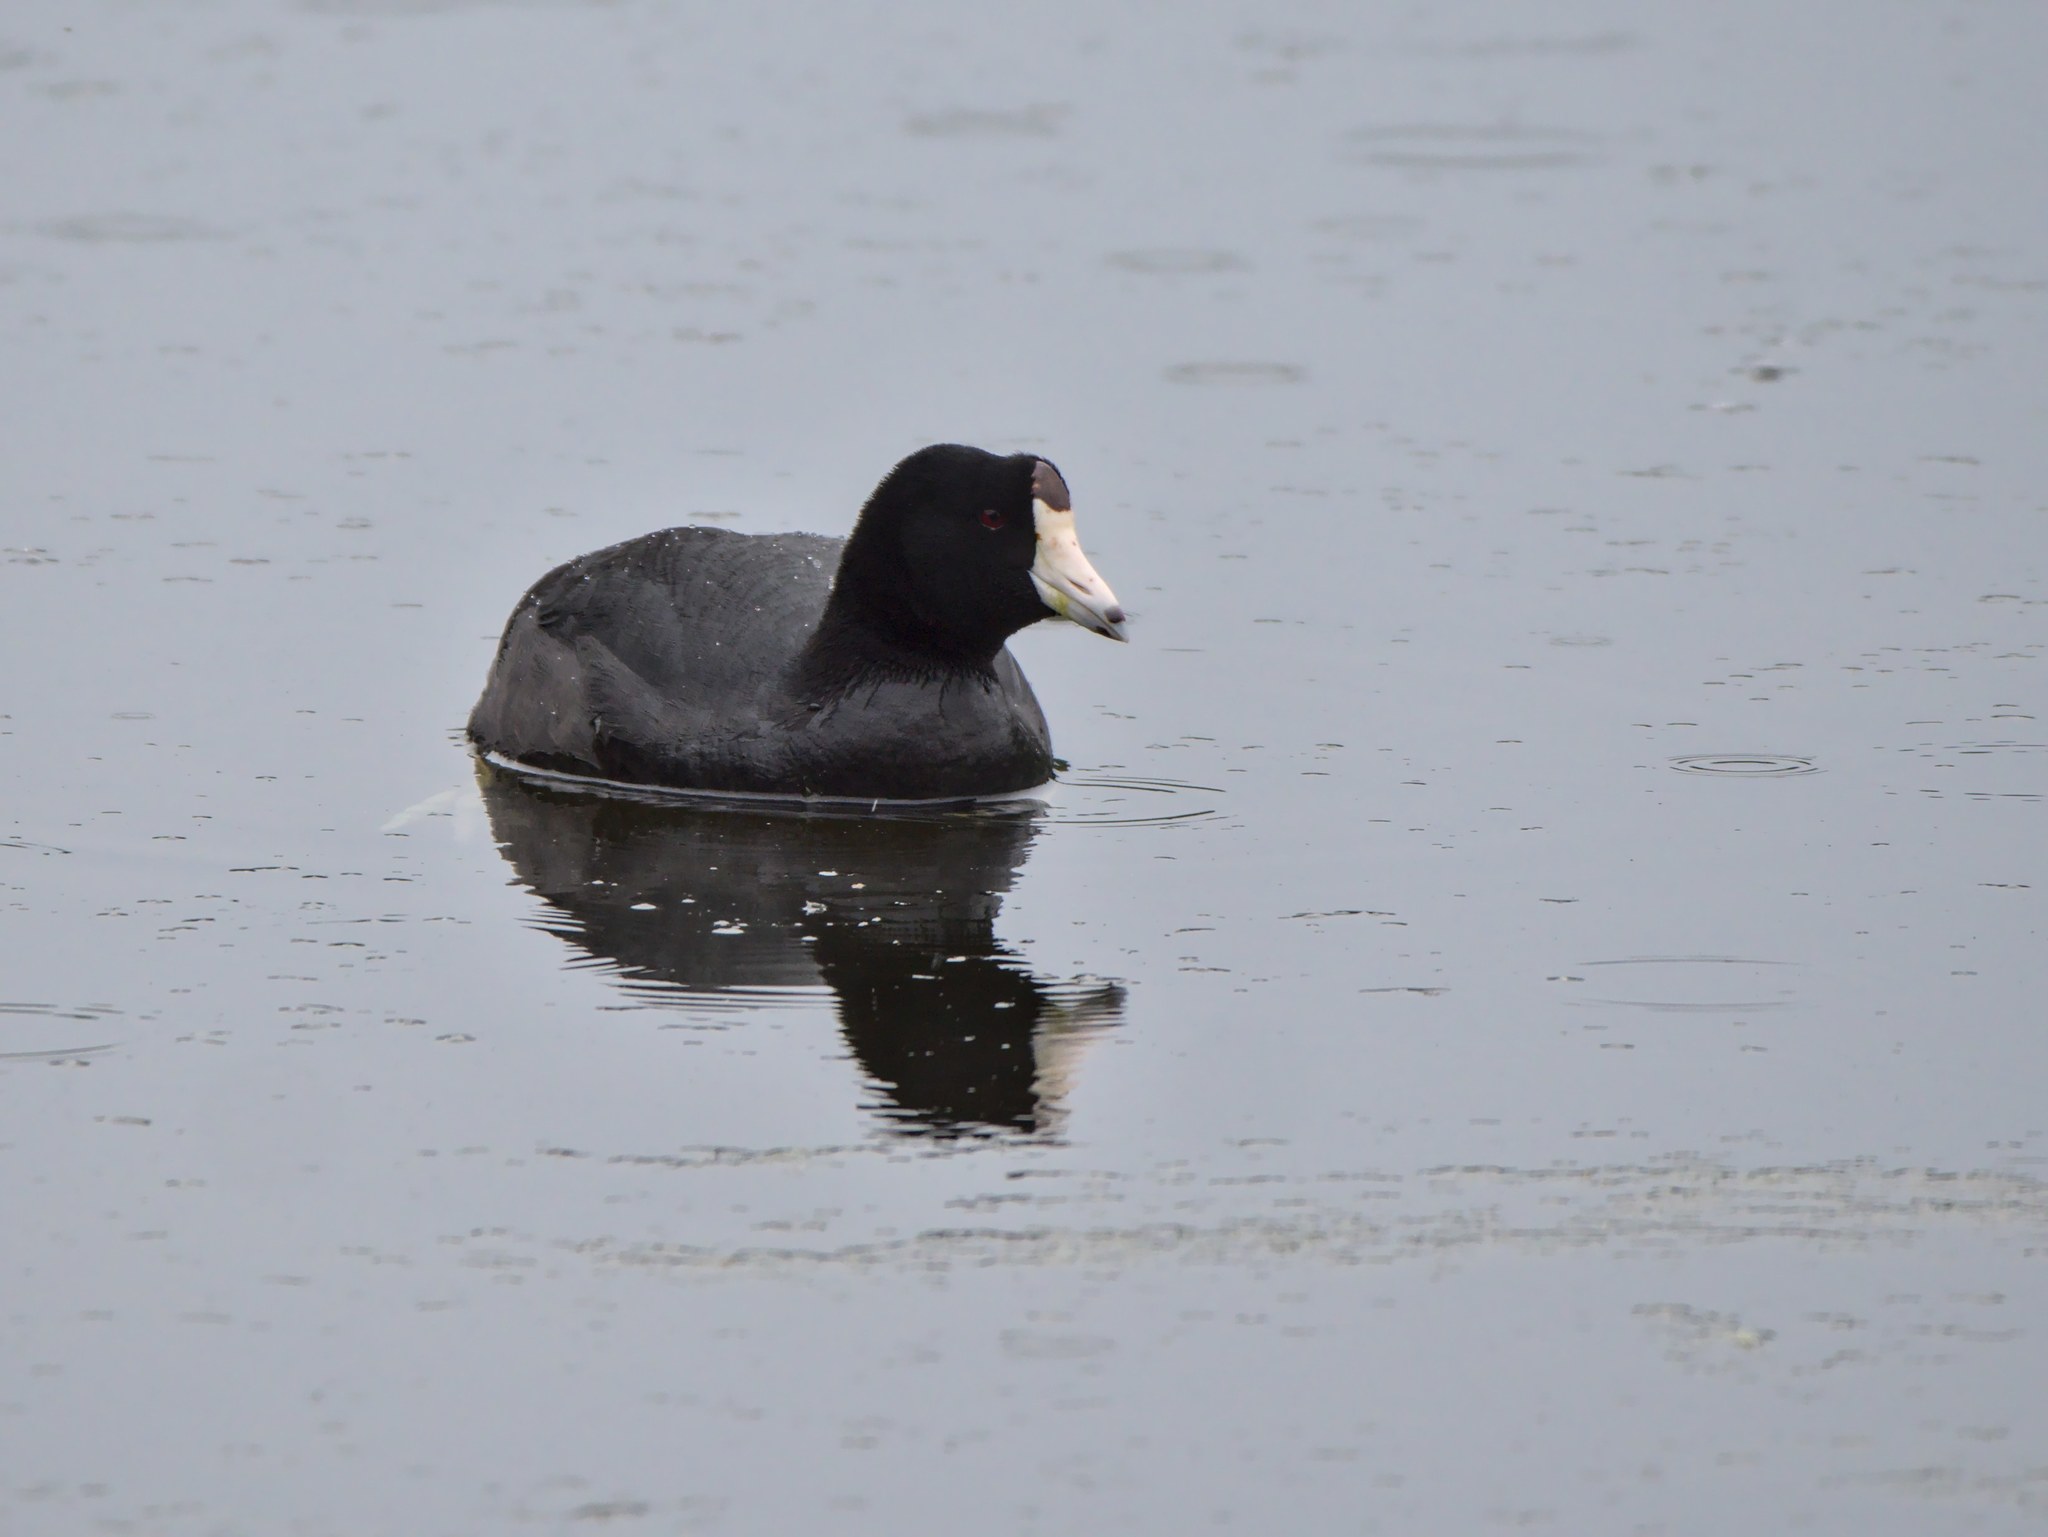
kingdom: Animalia
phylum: Chordata
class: Aves
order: Gruiformes
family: Rallidae
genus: Fulica
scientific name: Fulica americana
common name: American coot
